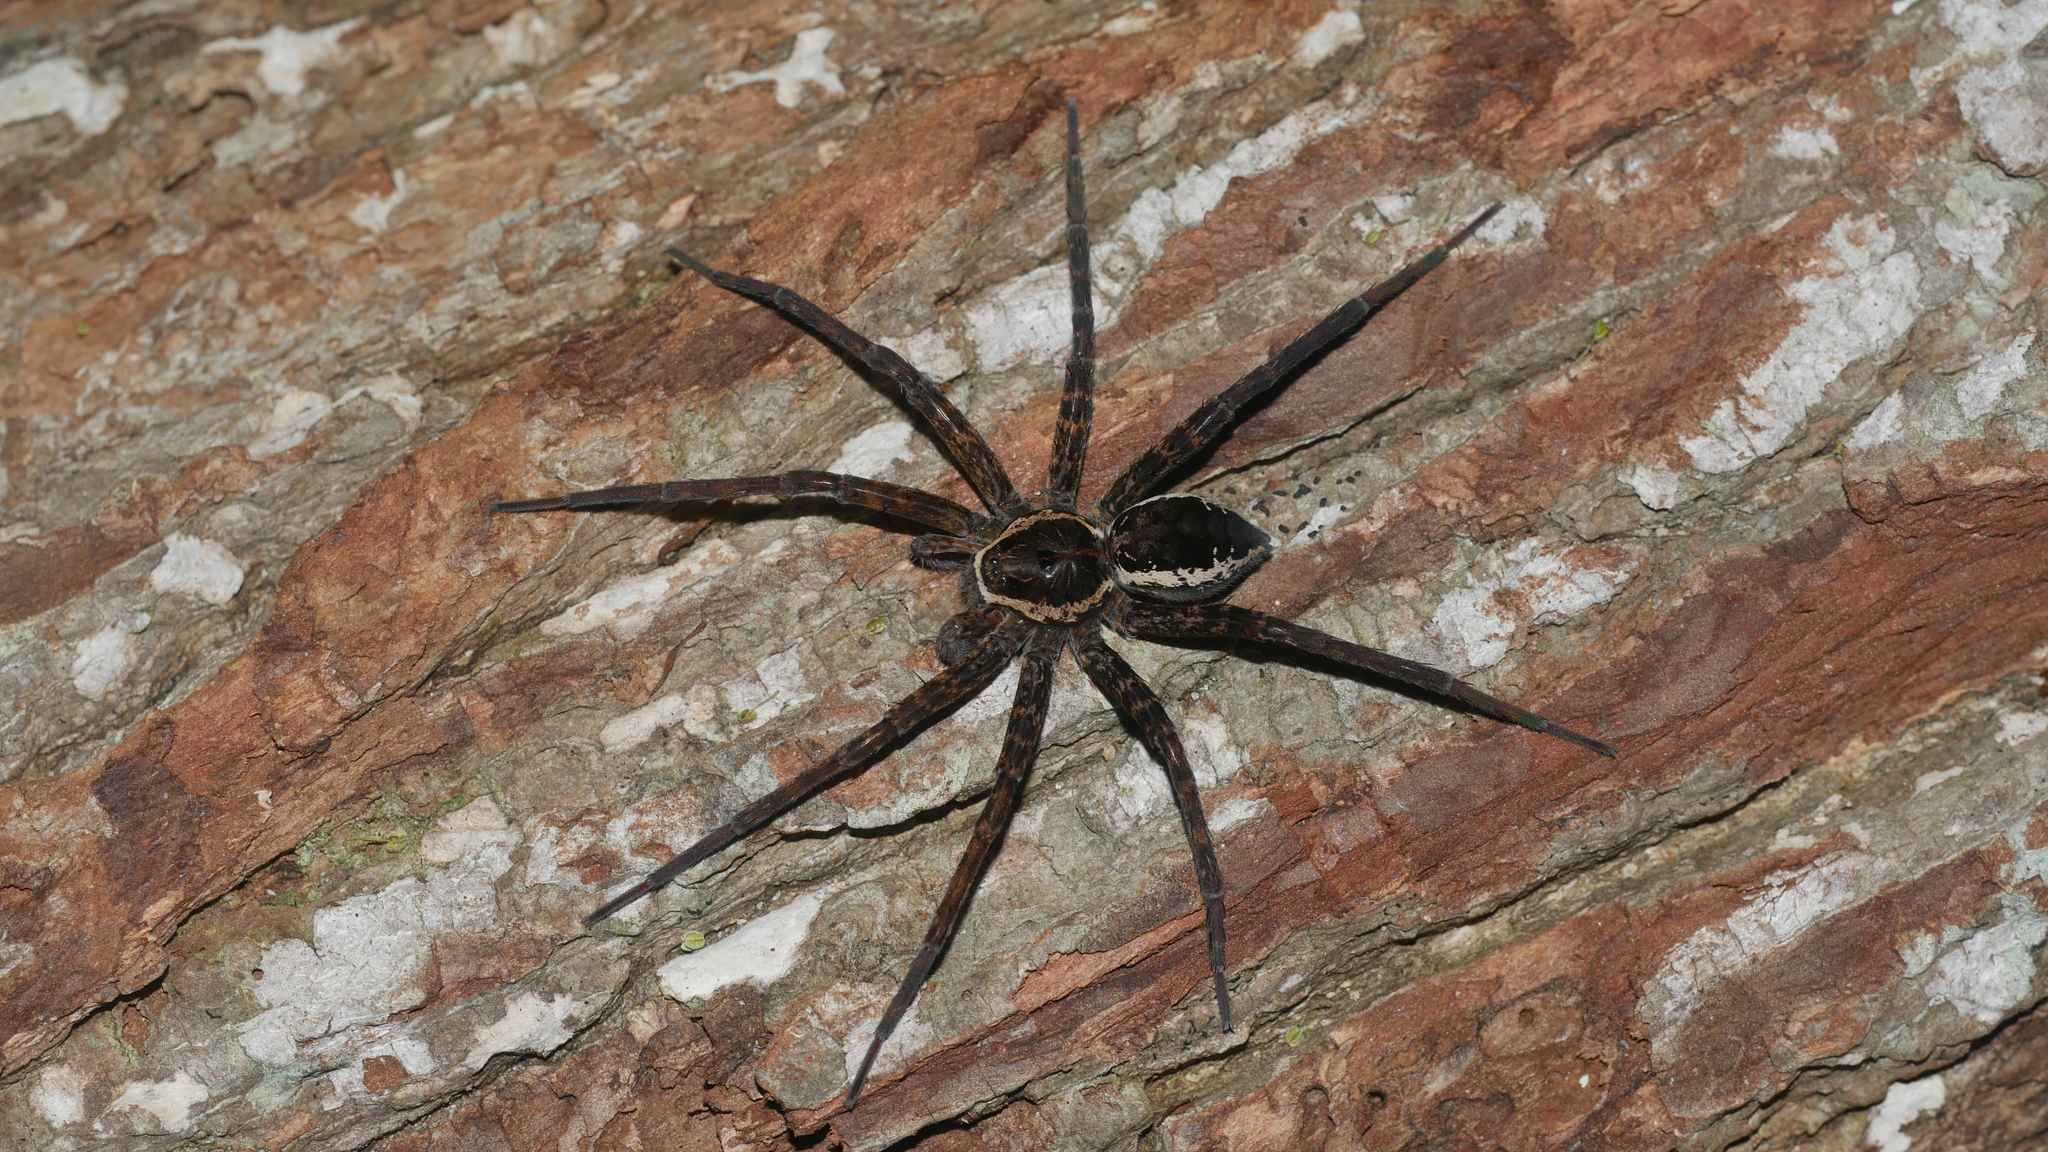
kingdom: Animalia
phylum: Arthropoda
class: Arachnida
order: Araneae
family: Pisauridae
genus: Dolomedes
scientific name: Dolomedes vittatus
